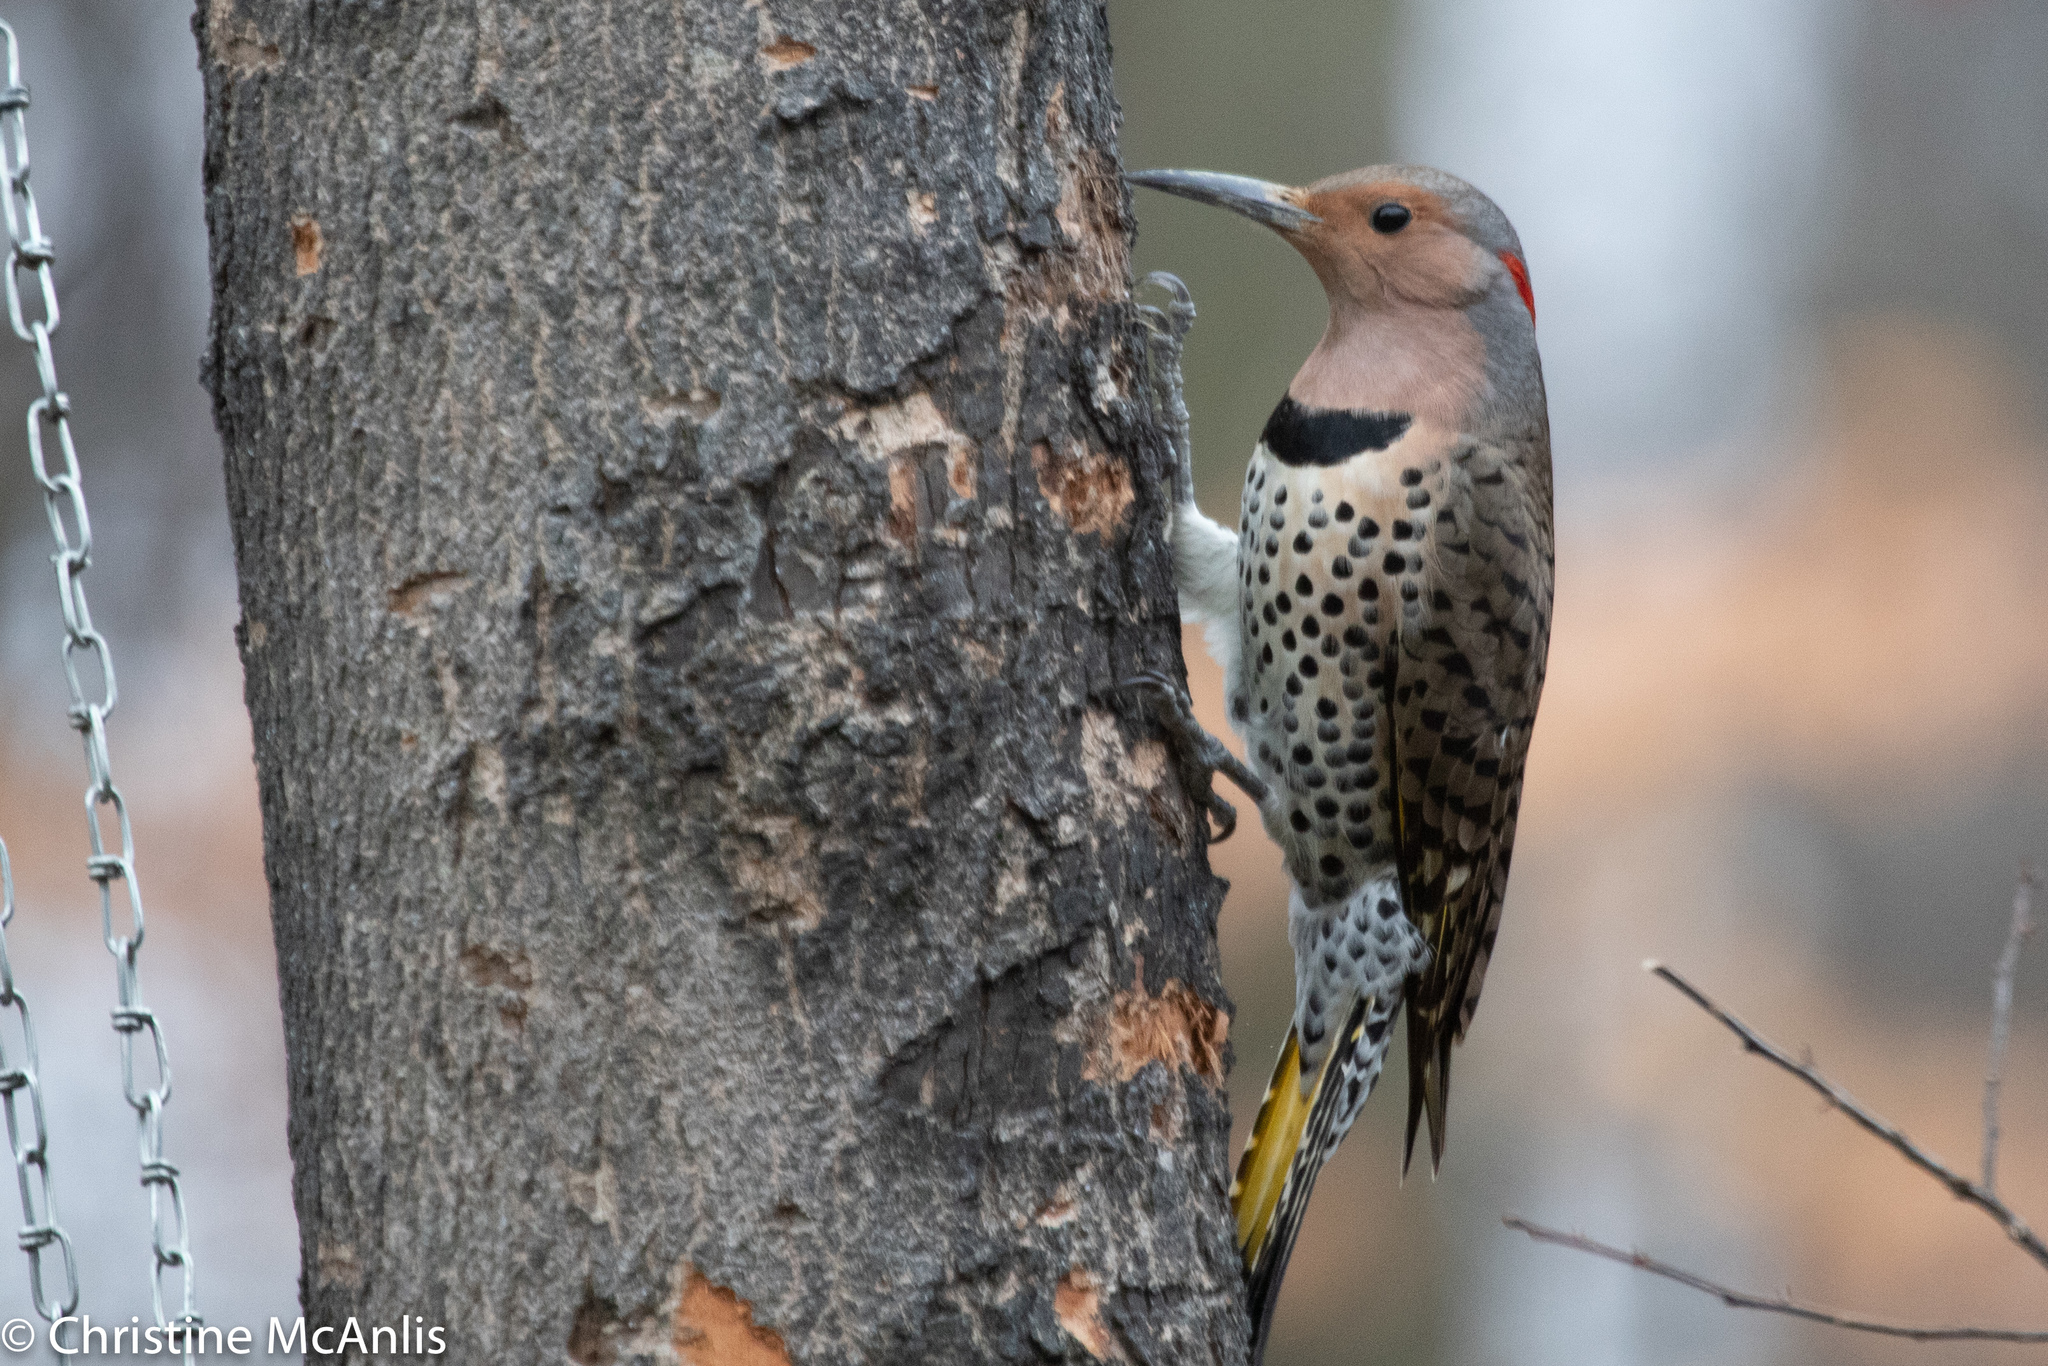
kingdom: Animalia
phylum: Chordata
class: Aves
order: Piciformes
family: Picidae
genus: Colaptes
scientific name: Colaptes auratus
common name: Northern flicker
